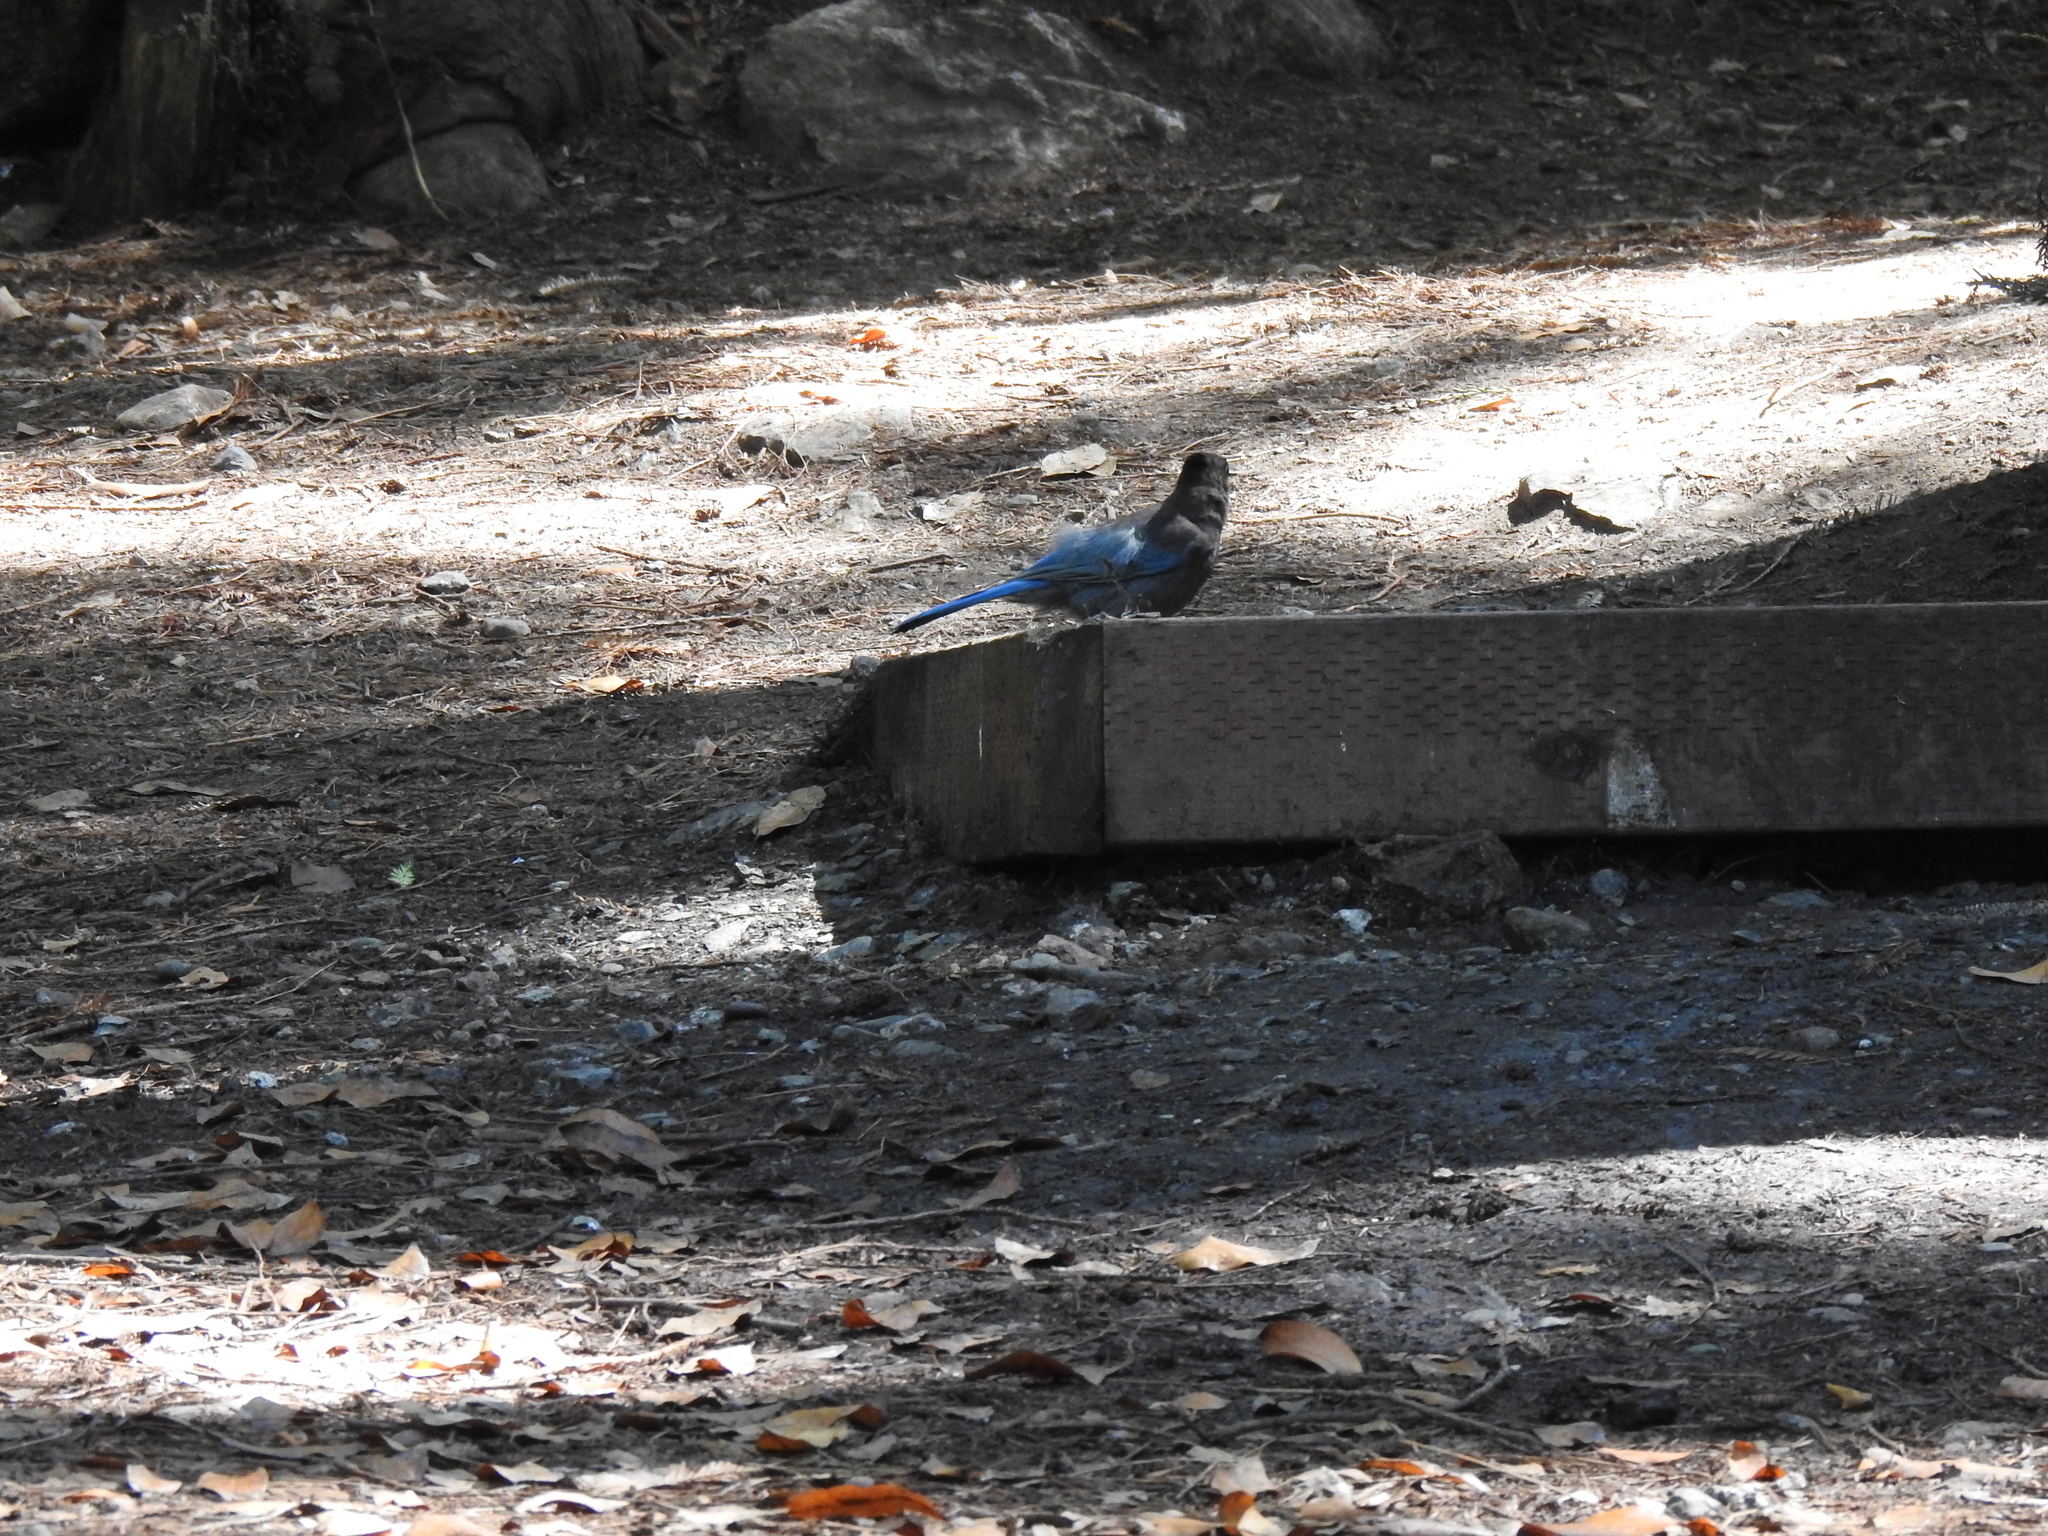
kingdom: Animalia
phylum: Chordata
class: Aves
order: Passeriformes
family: Corvidae
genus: Cyanocitta
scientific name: Cyanocitta stelleri
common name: Steller's jay
